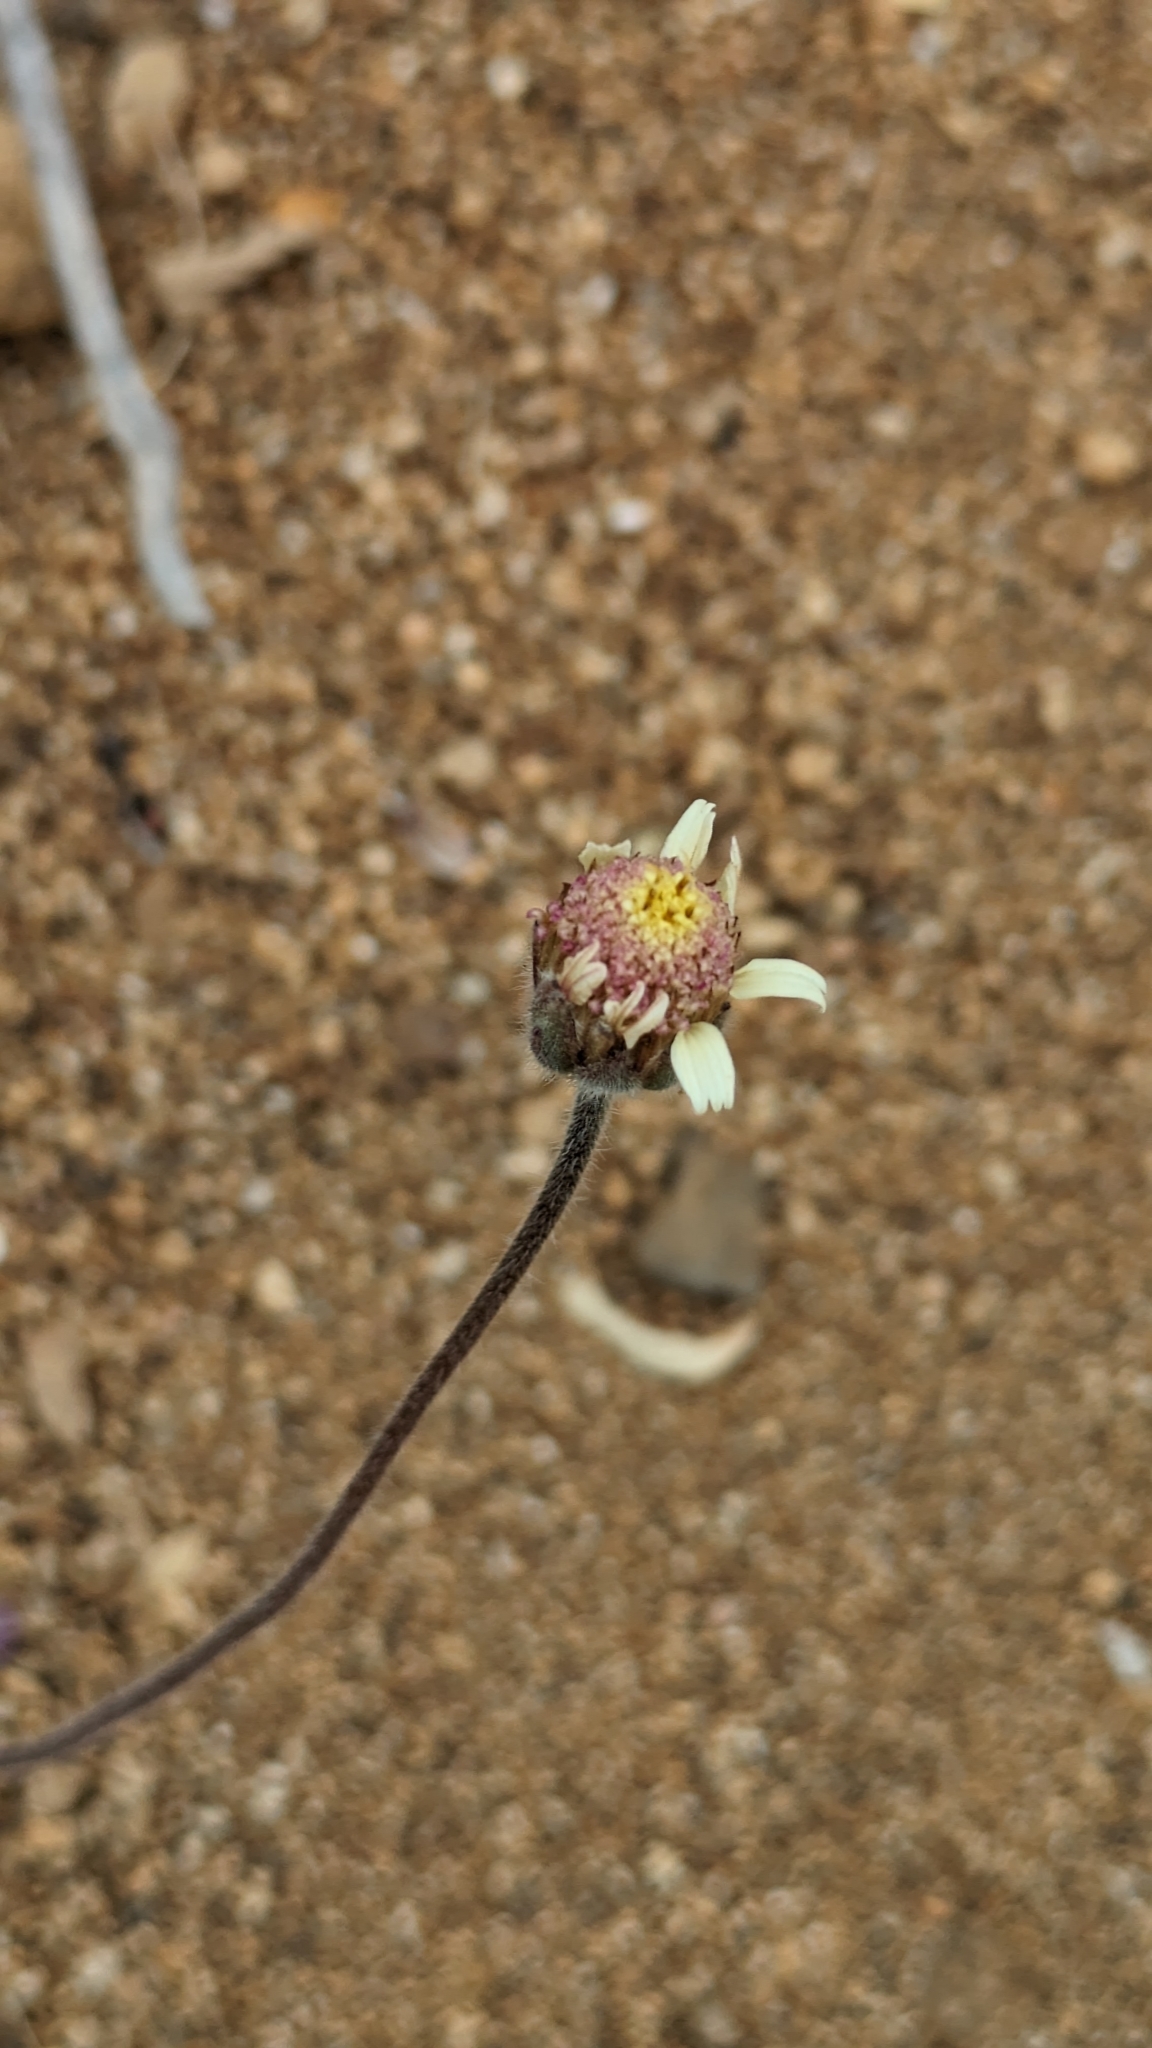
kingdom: Plantae
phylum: Tracheophyta
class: Magnoliopsida
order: Asterales
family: Asteraceae
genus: Tridax
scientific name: Tridax procumbens
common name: Coatbuttons
